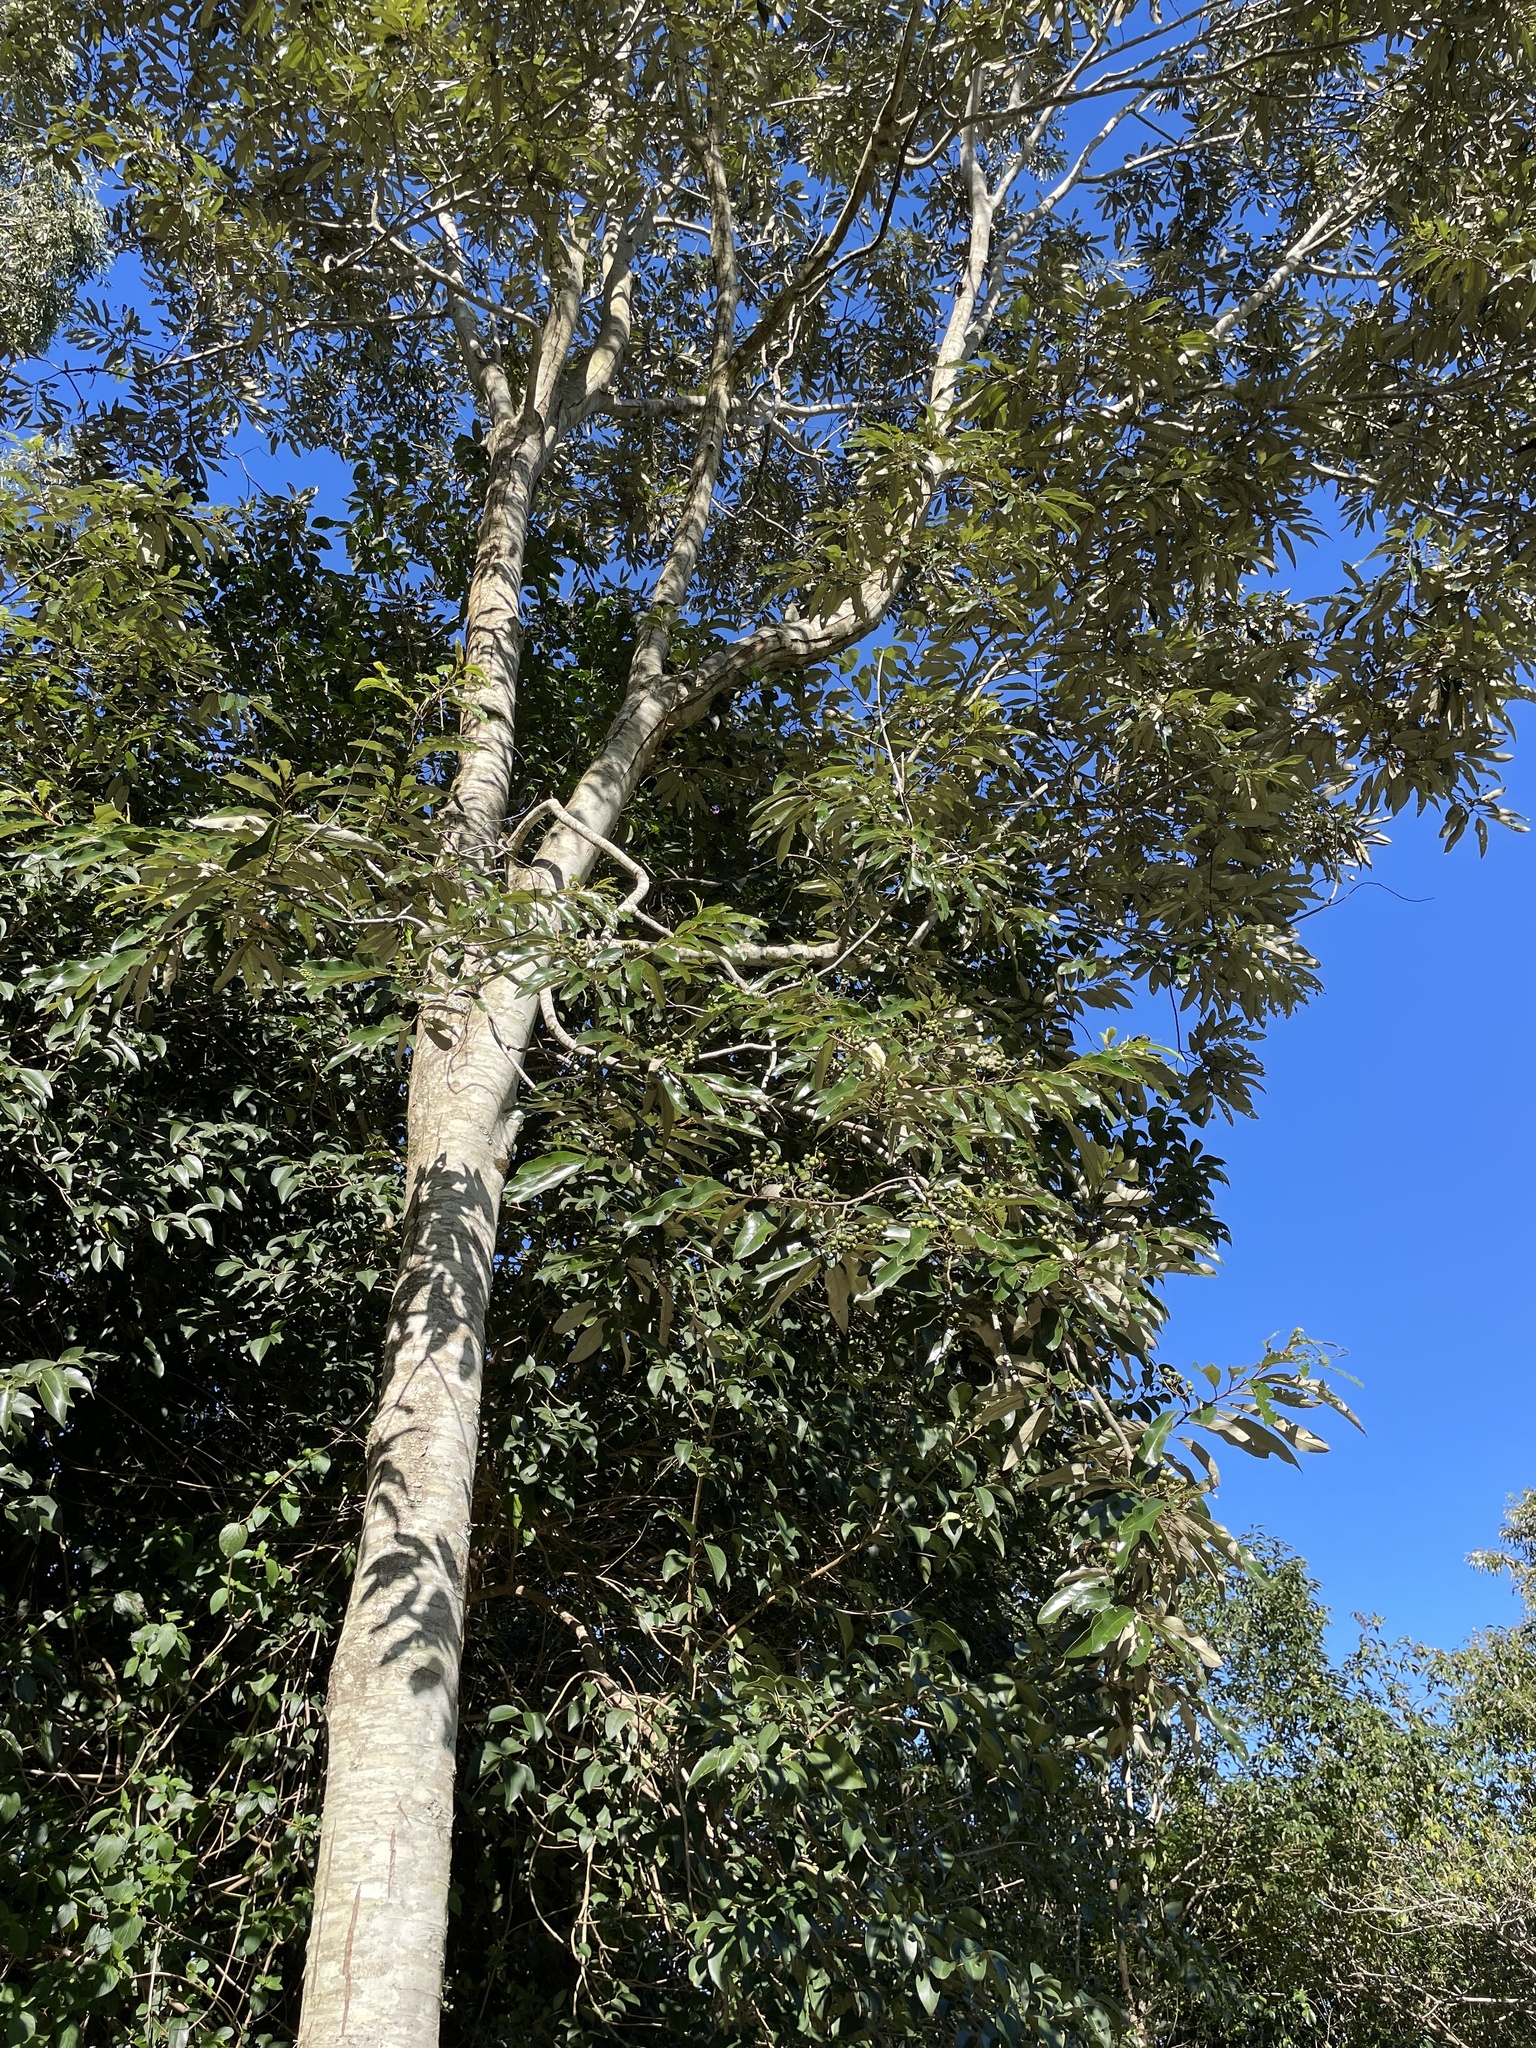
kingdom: Plantae
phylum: Tracheophyta
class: Magnoliopsida
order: Rosales
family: Rhamnaceae
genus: Alphitonia
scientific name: Alphitonia excelsa
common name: Red ash
